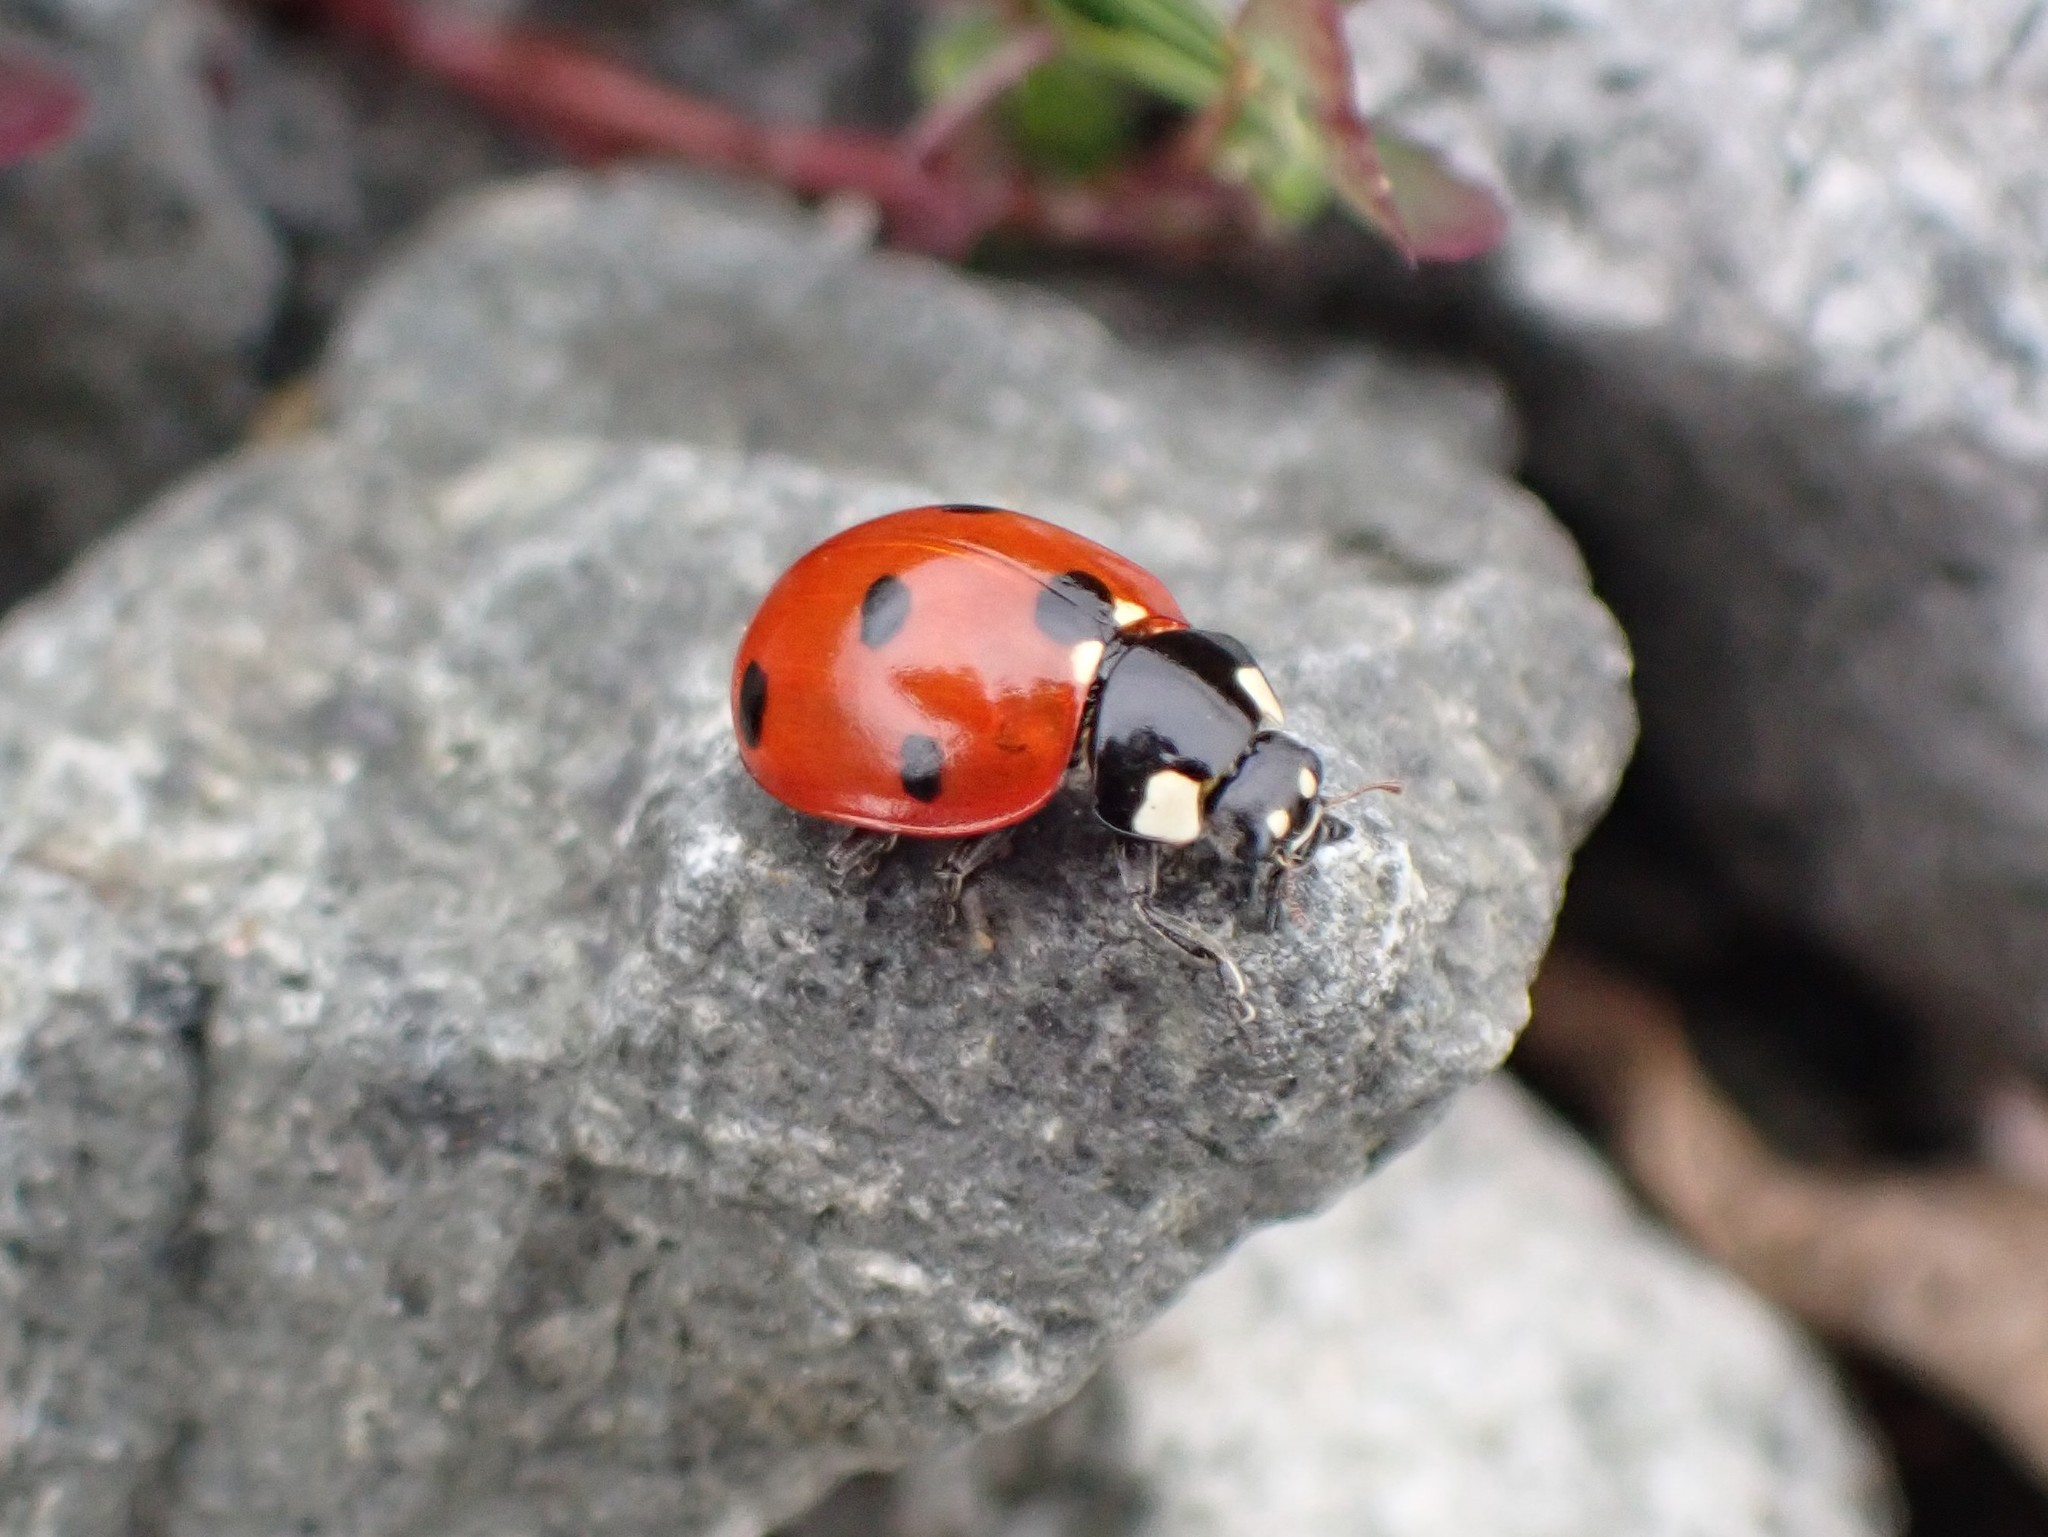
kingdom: Animalia
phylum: Arthropoda
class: Insecta
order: Coleoptera
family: Coccinellidae
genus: Coccinella
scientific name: Coccinella septempunctata
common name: Sevenspotted lady beetle
